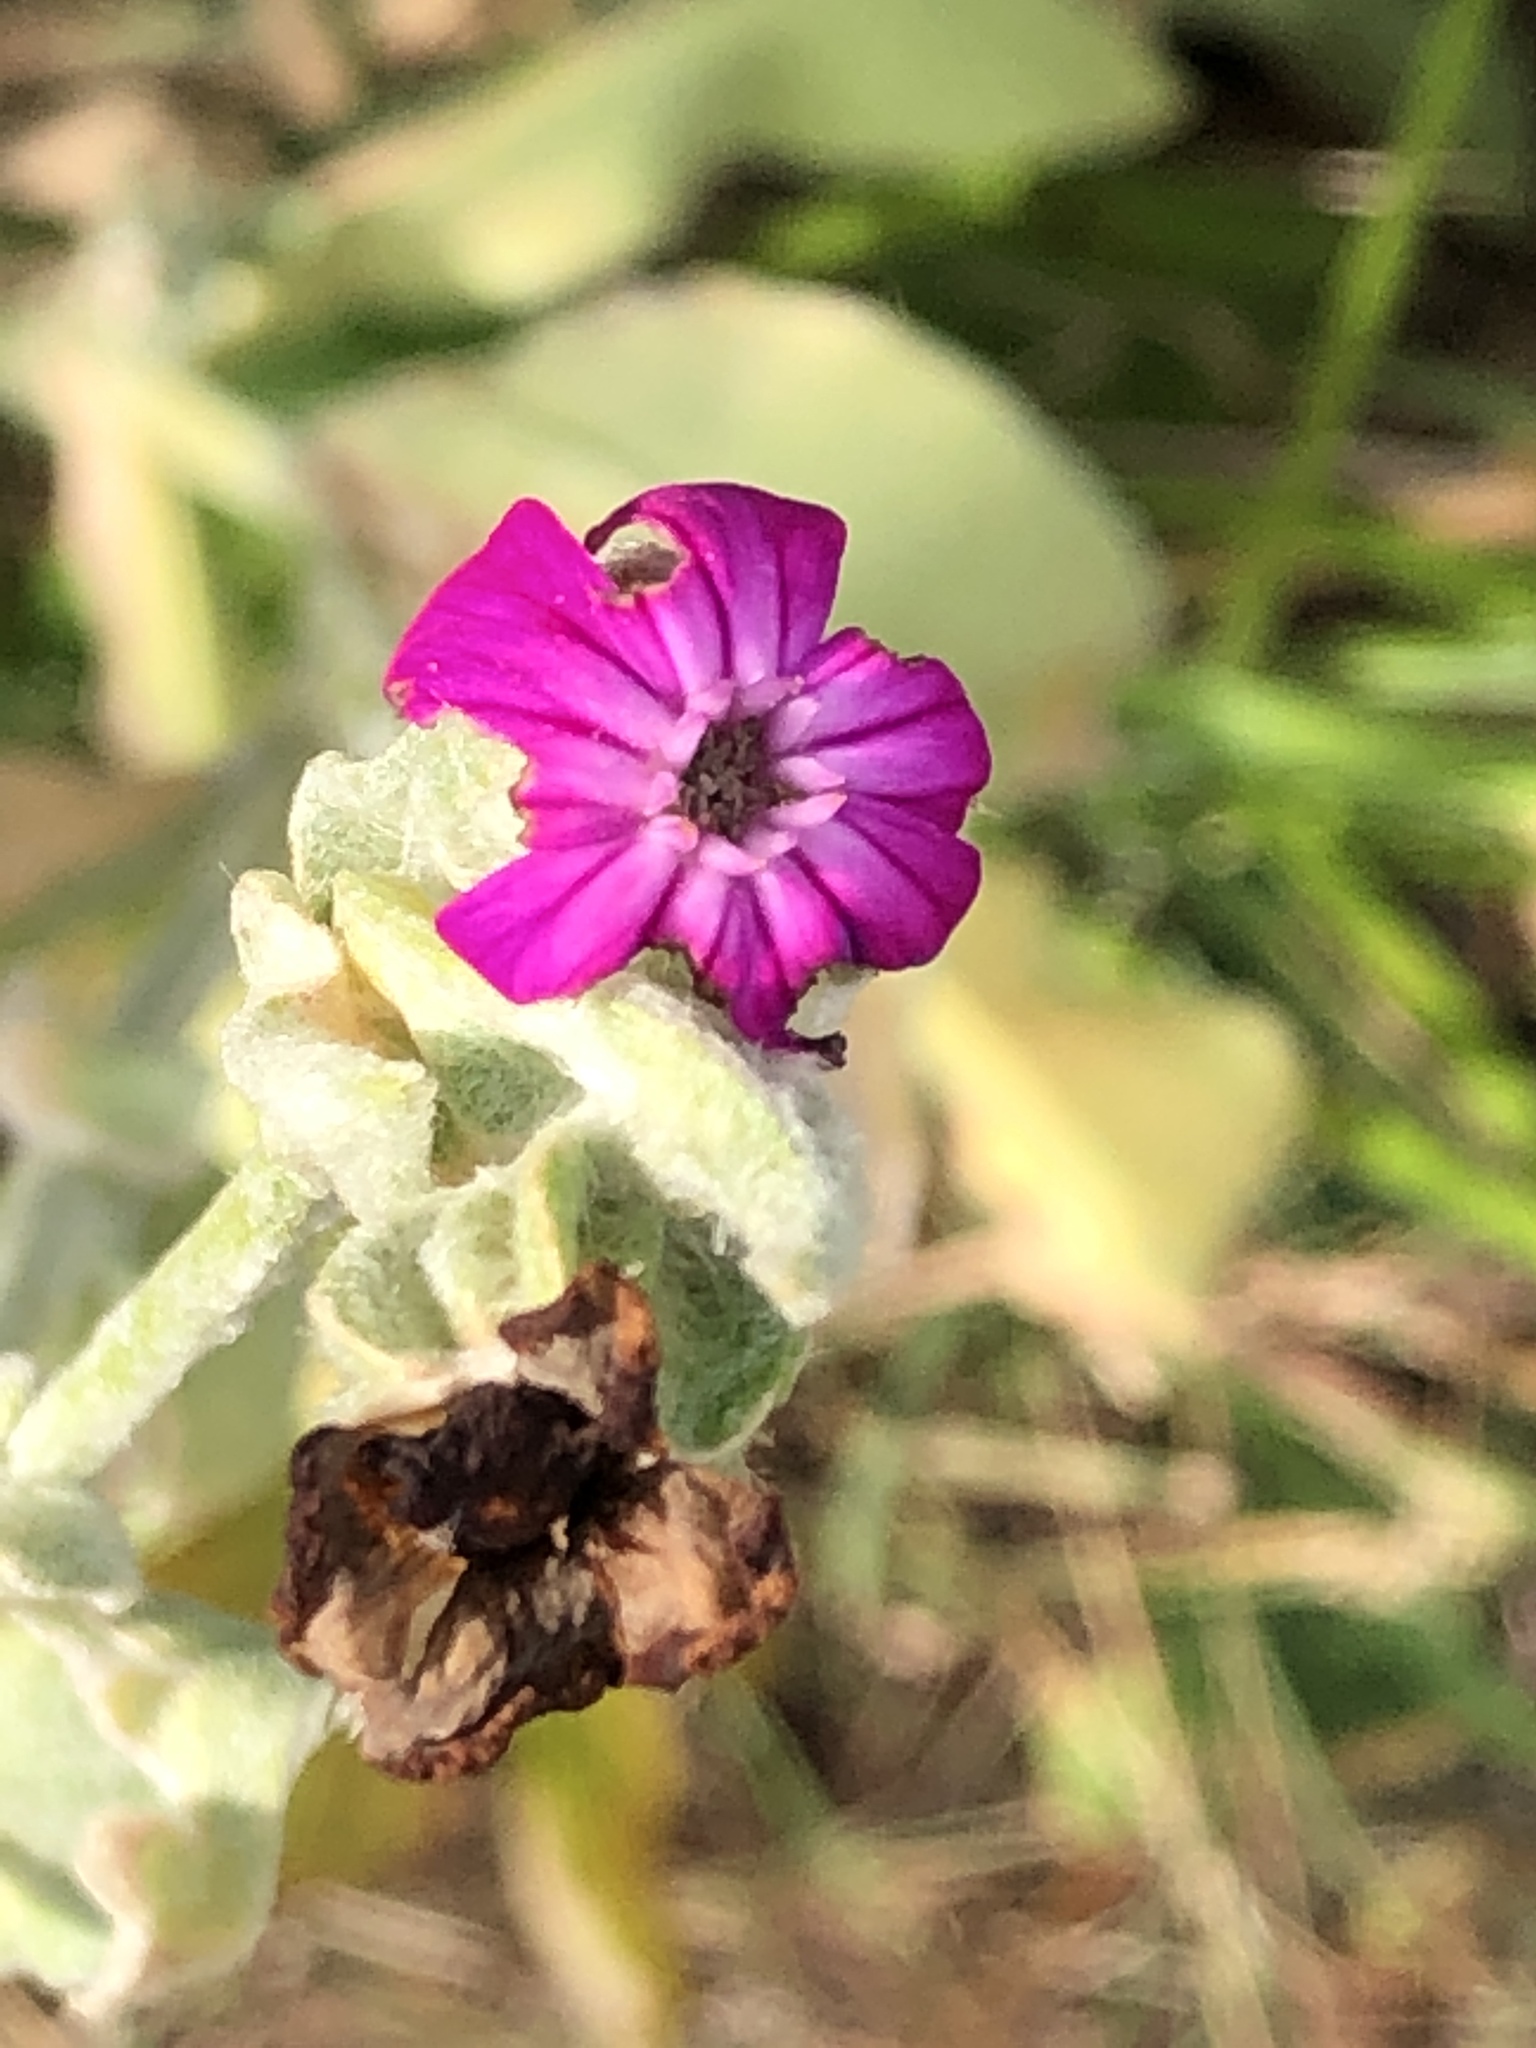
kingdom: Plantae
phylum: Tracheophyta
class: Magnoliopsida
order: Caryophyllales
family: Caryophyllaceae
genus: Silene
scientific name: Silene coronaria
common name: Rose campion
